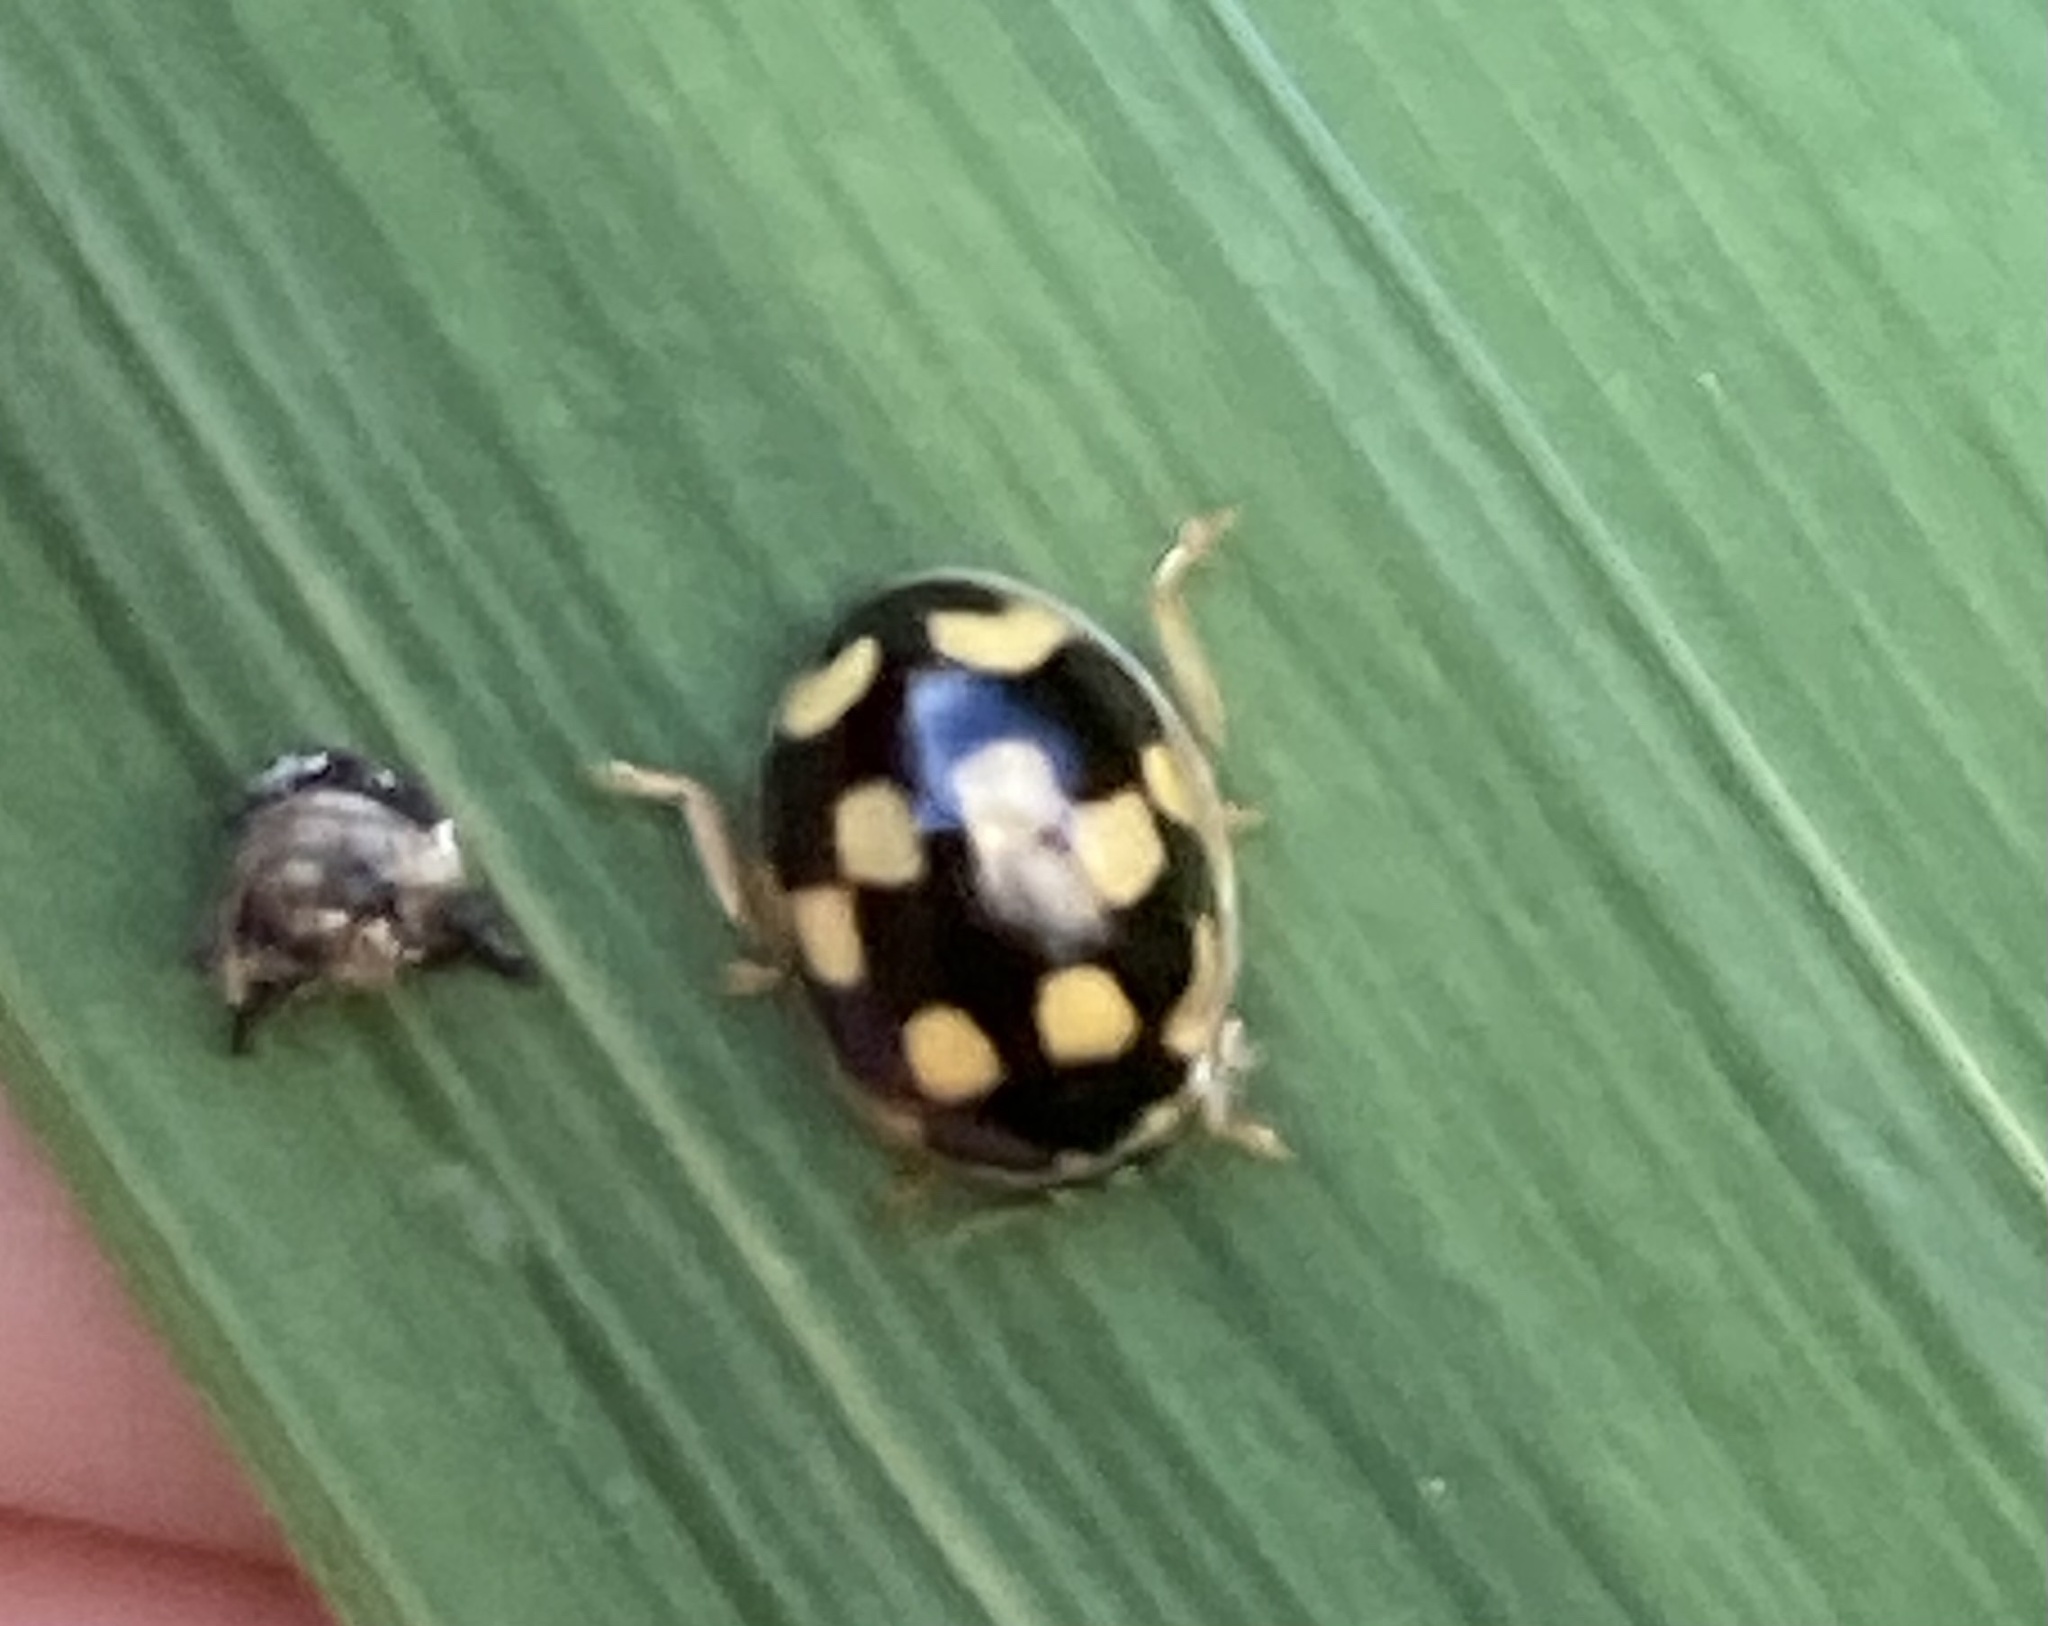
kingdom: Animalia
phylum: Arthropoda
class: Insecta
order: Coleoptera
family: Coccinellidae
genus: Coccinula
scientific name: Coccinula quatuordecimpustulata
